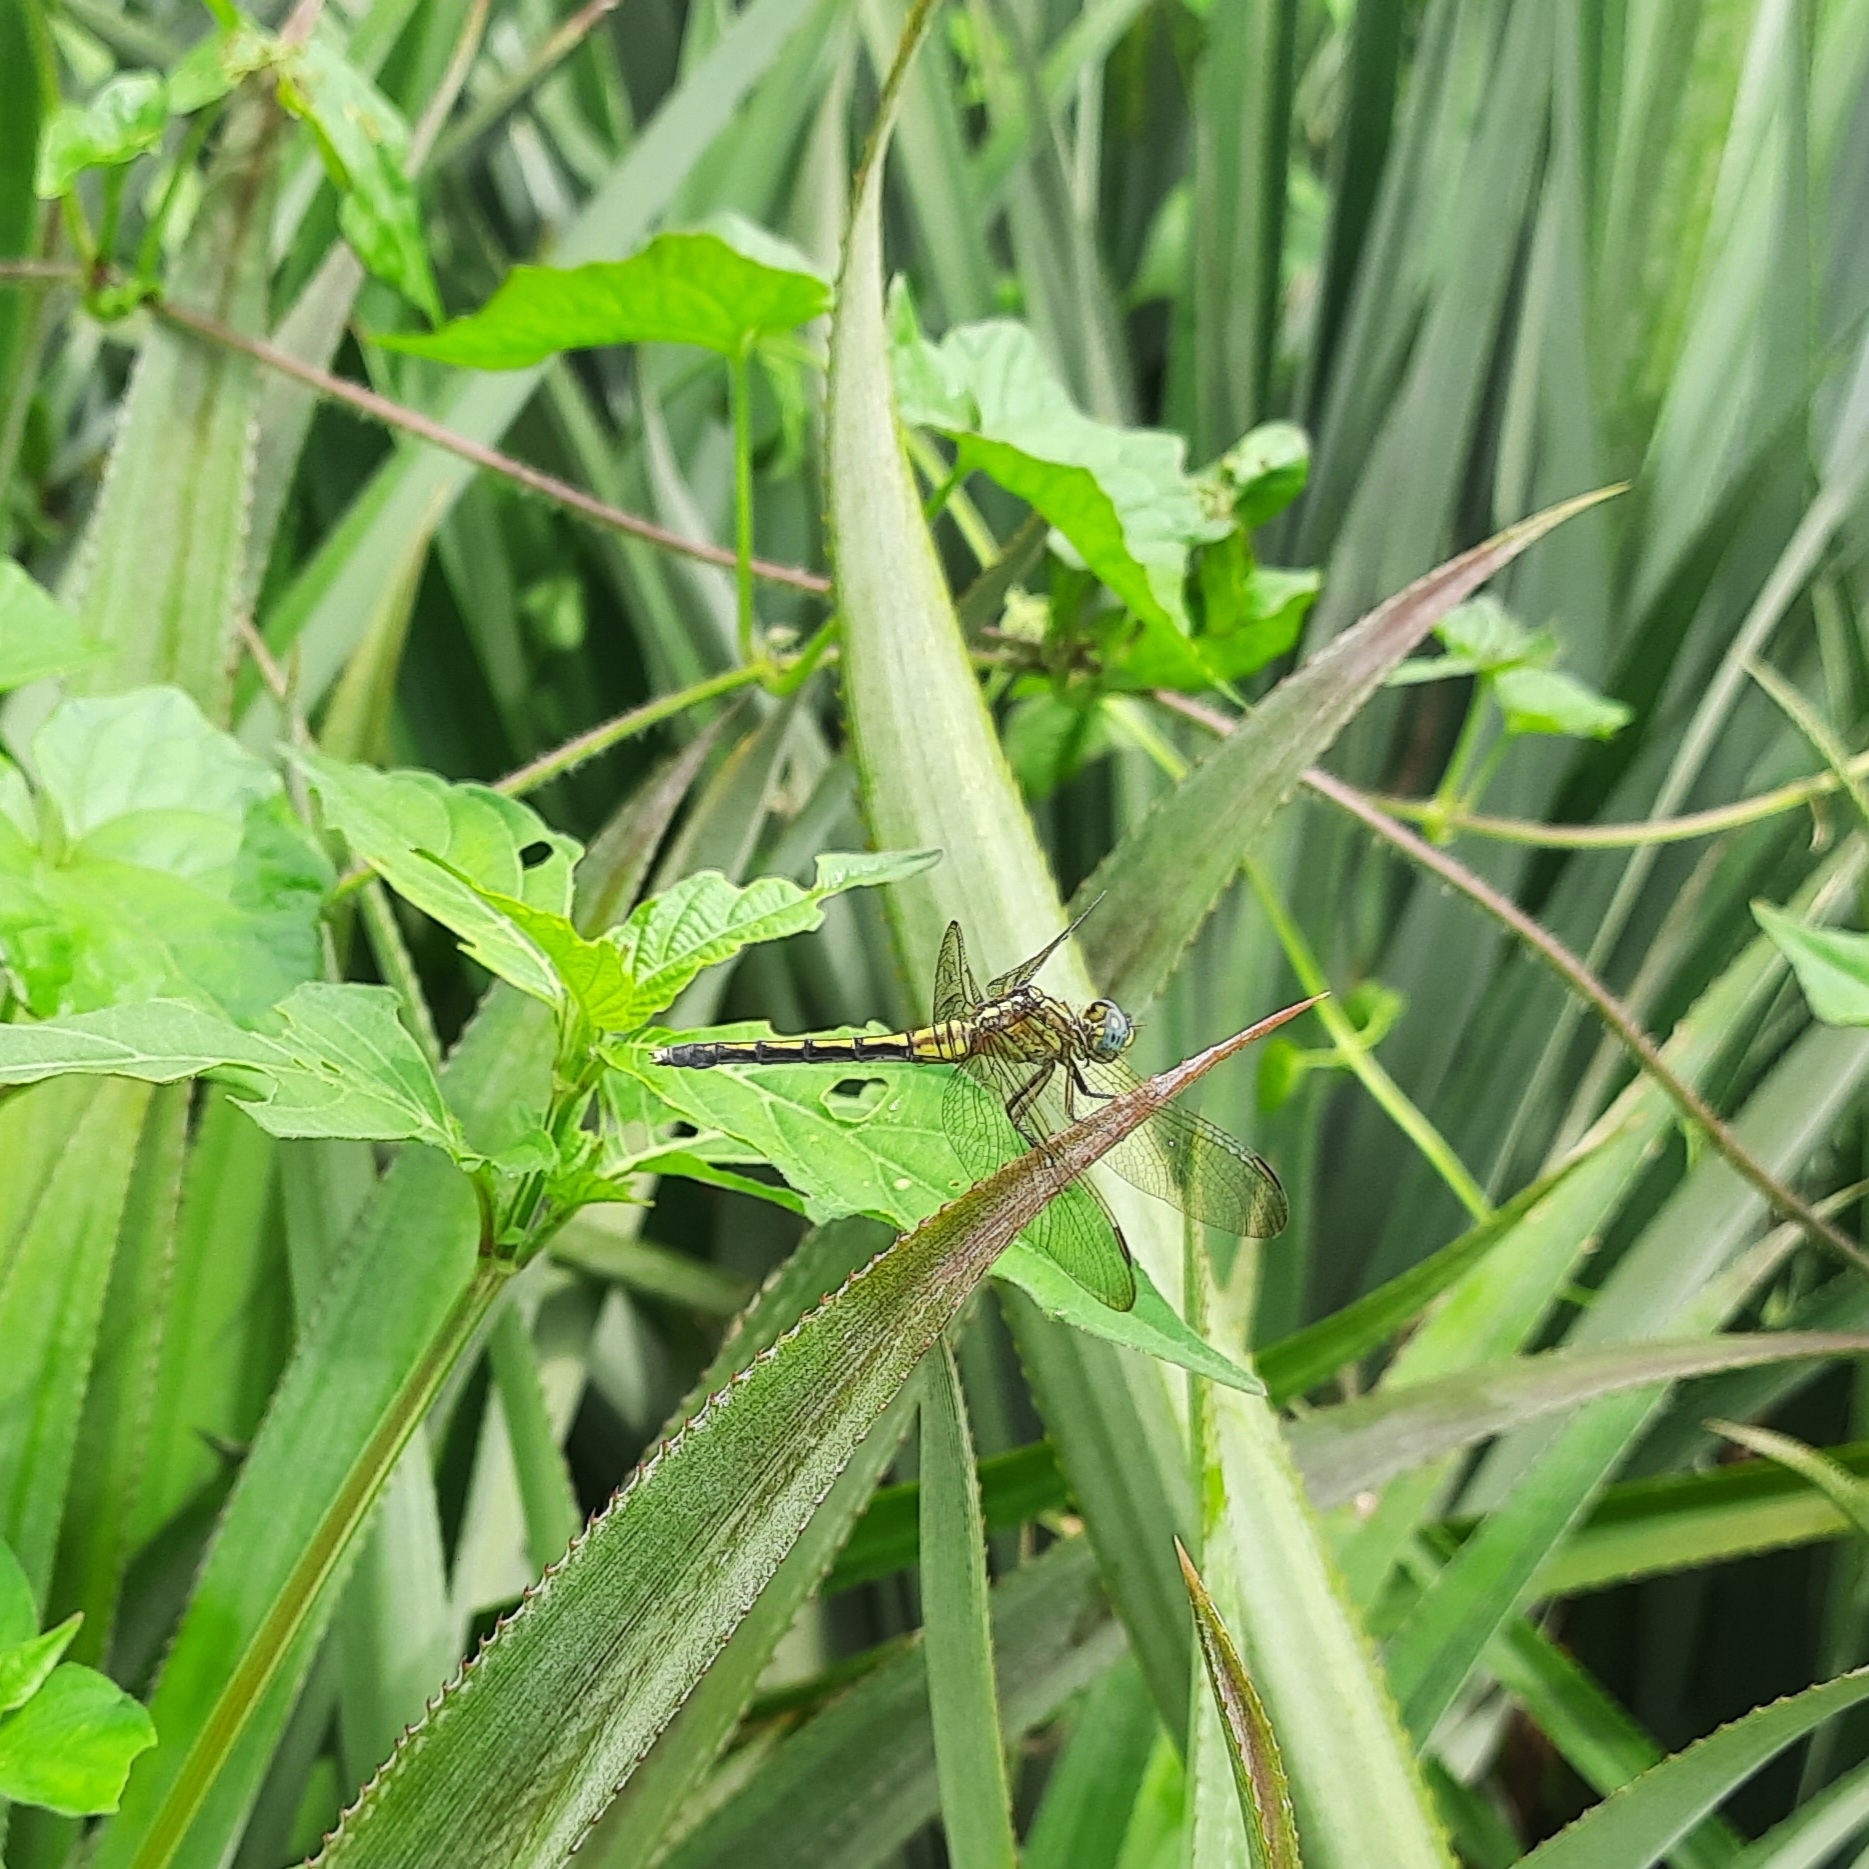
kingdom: Animalia
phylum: Arthropoda
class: Insecta
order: Odonata
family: Libellulidae
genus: Orthetrum
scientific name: Orthetrum luzonicum
